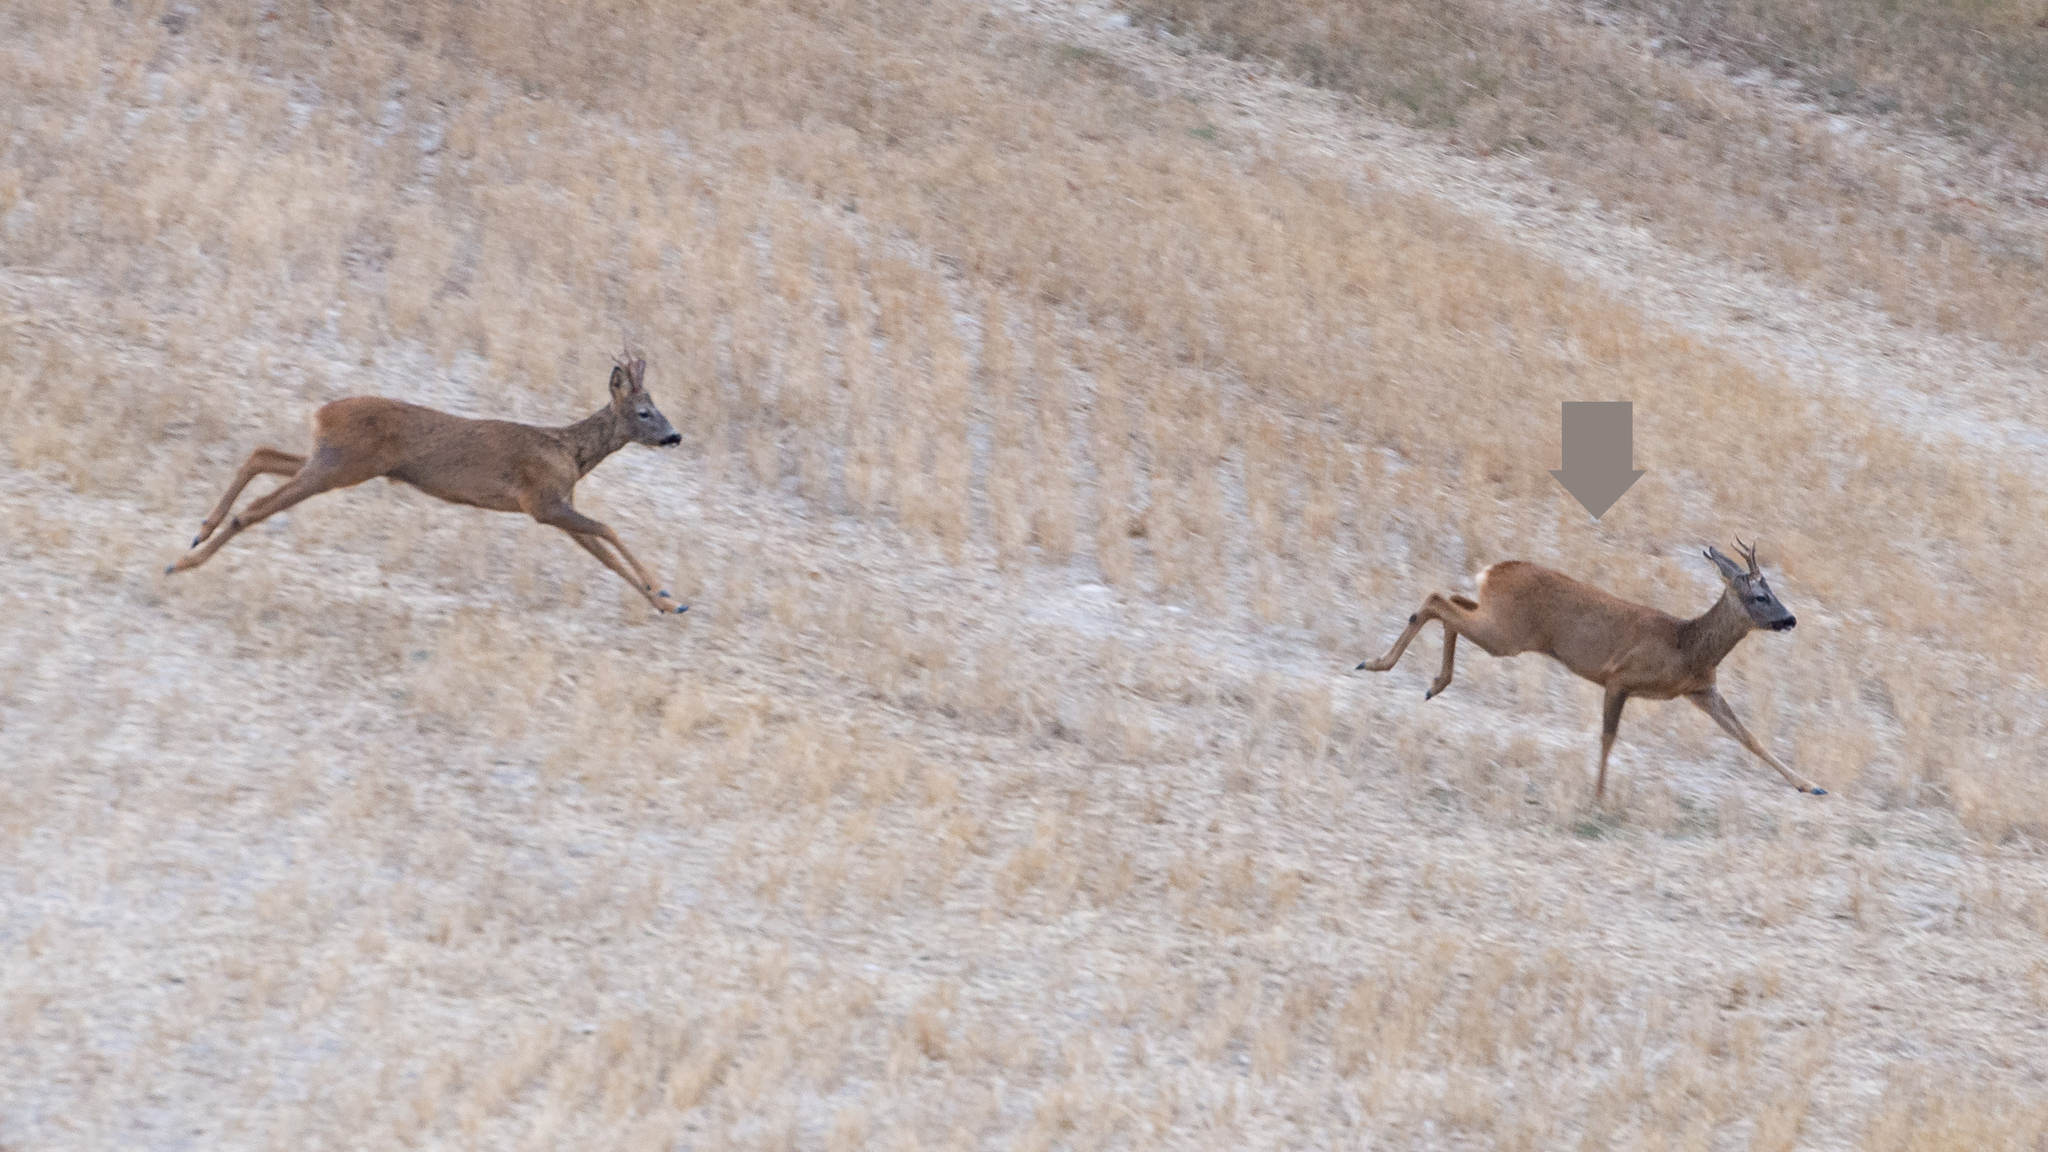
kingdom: Animalia
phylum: Chordata
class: Mammalia
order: Artiodactyla
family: Cervidae
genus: Capreolus
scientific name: Capreolus capreolus
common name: Western roe deer
